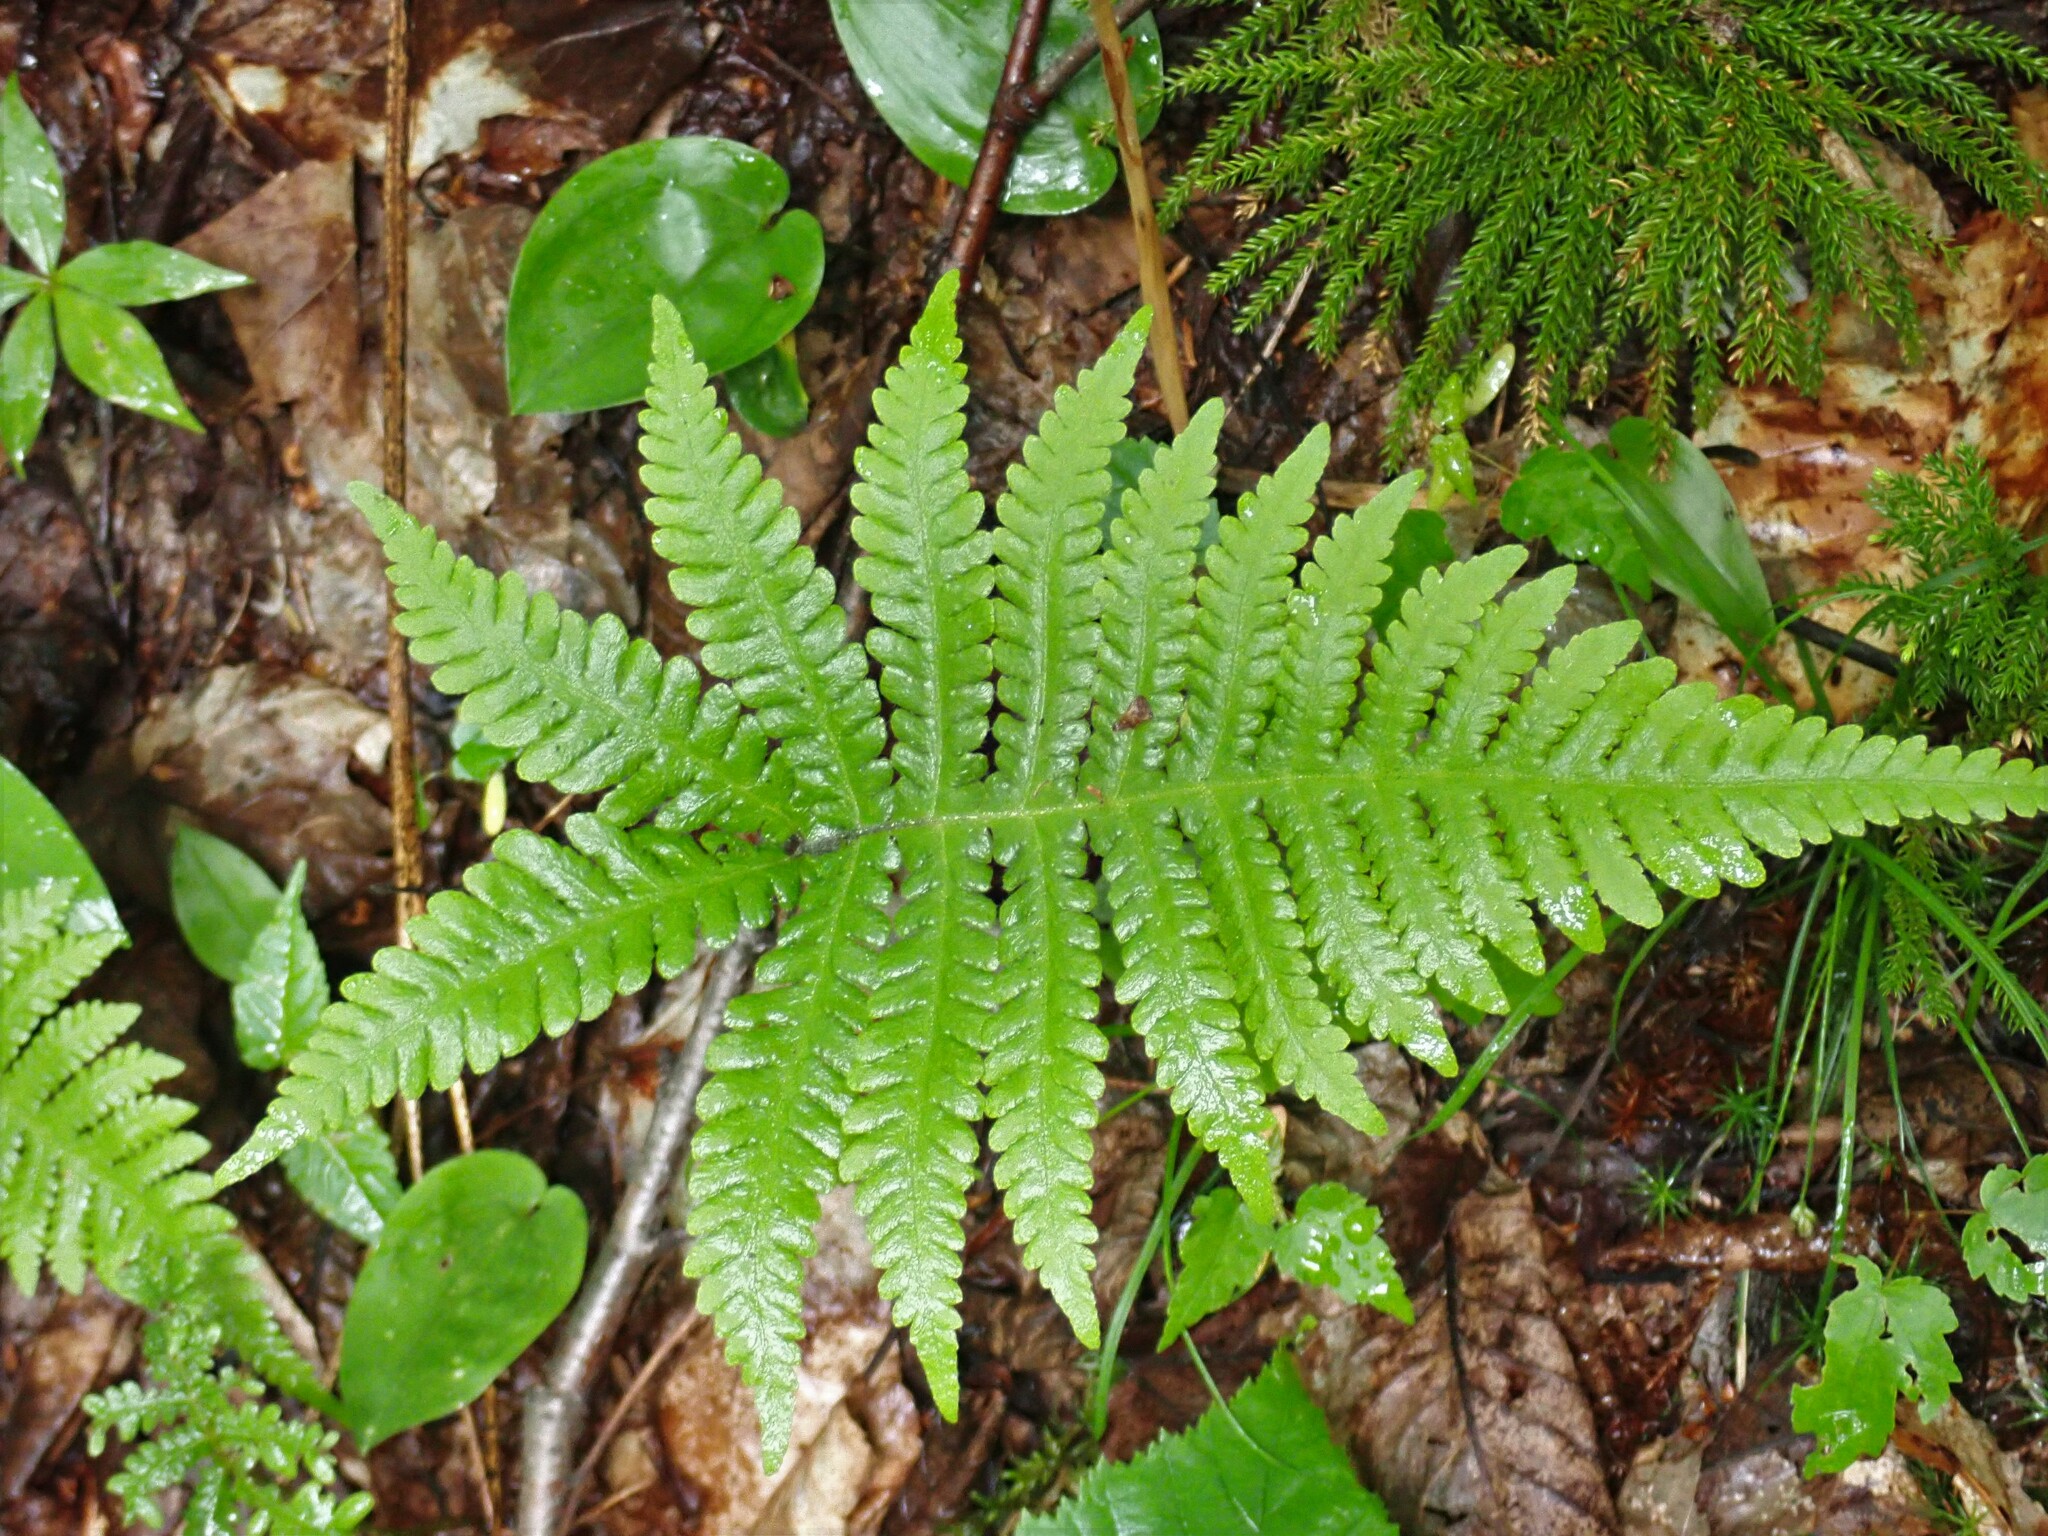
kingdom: Plantae
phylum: Tracheophyta
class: Polypodiopsida
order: Polypodiales
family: Thelypteridaceae
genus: Phegopteris
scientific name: Phegopteris connectilis
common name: Beech fern
